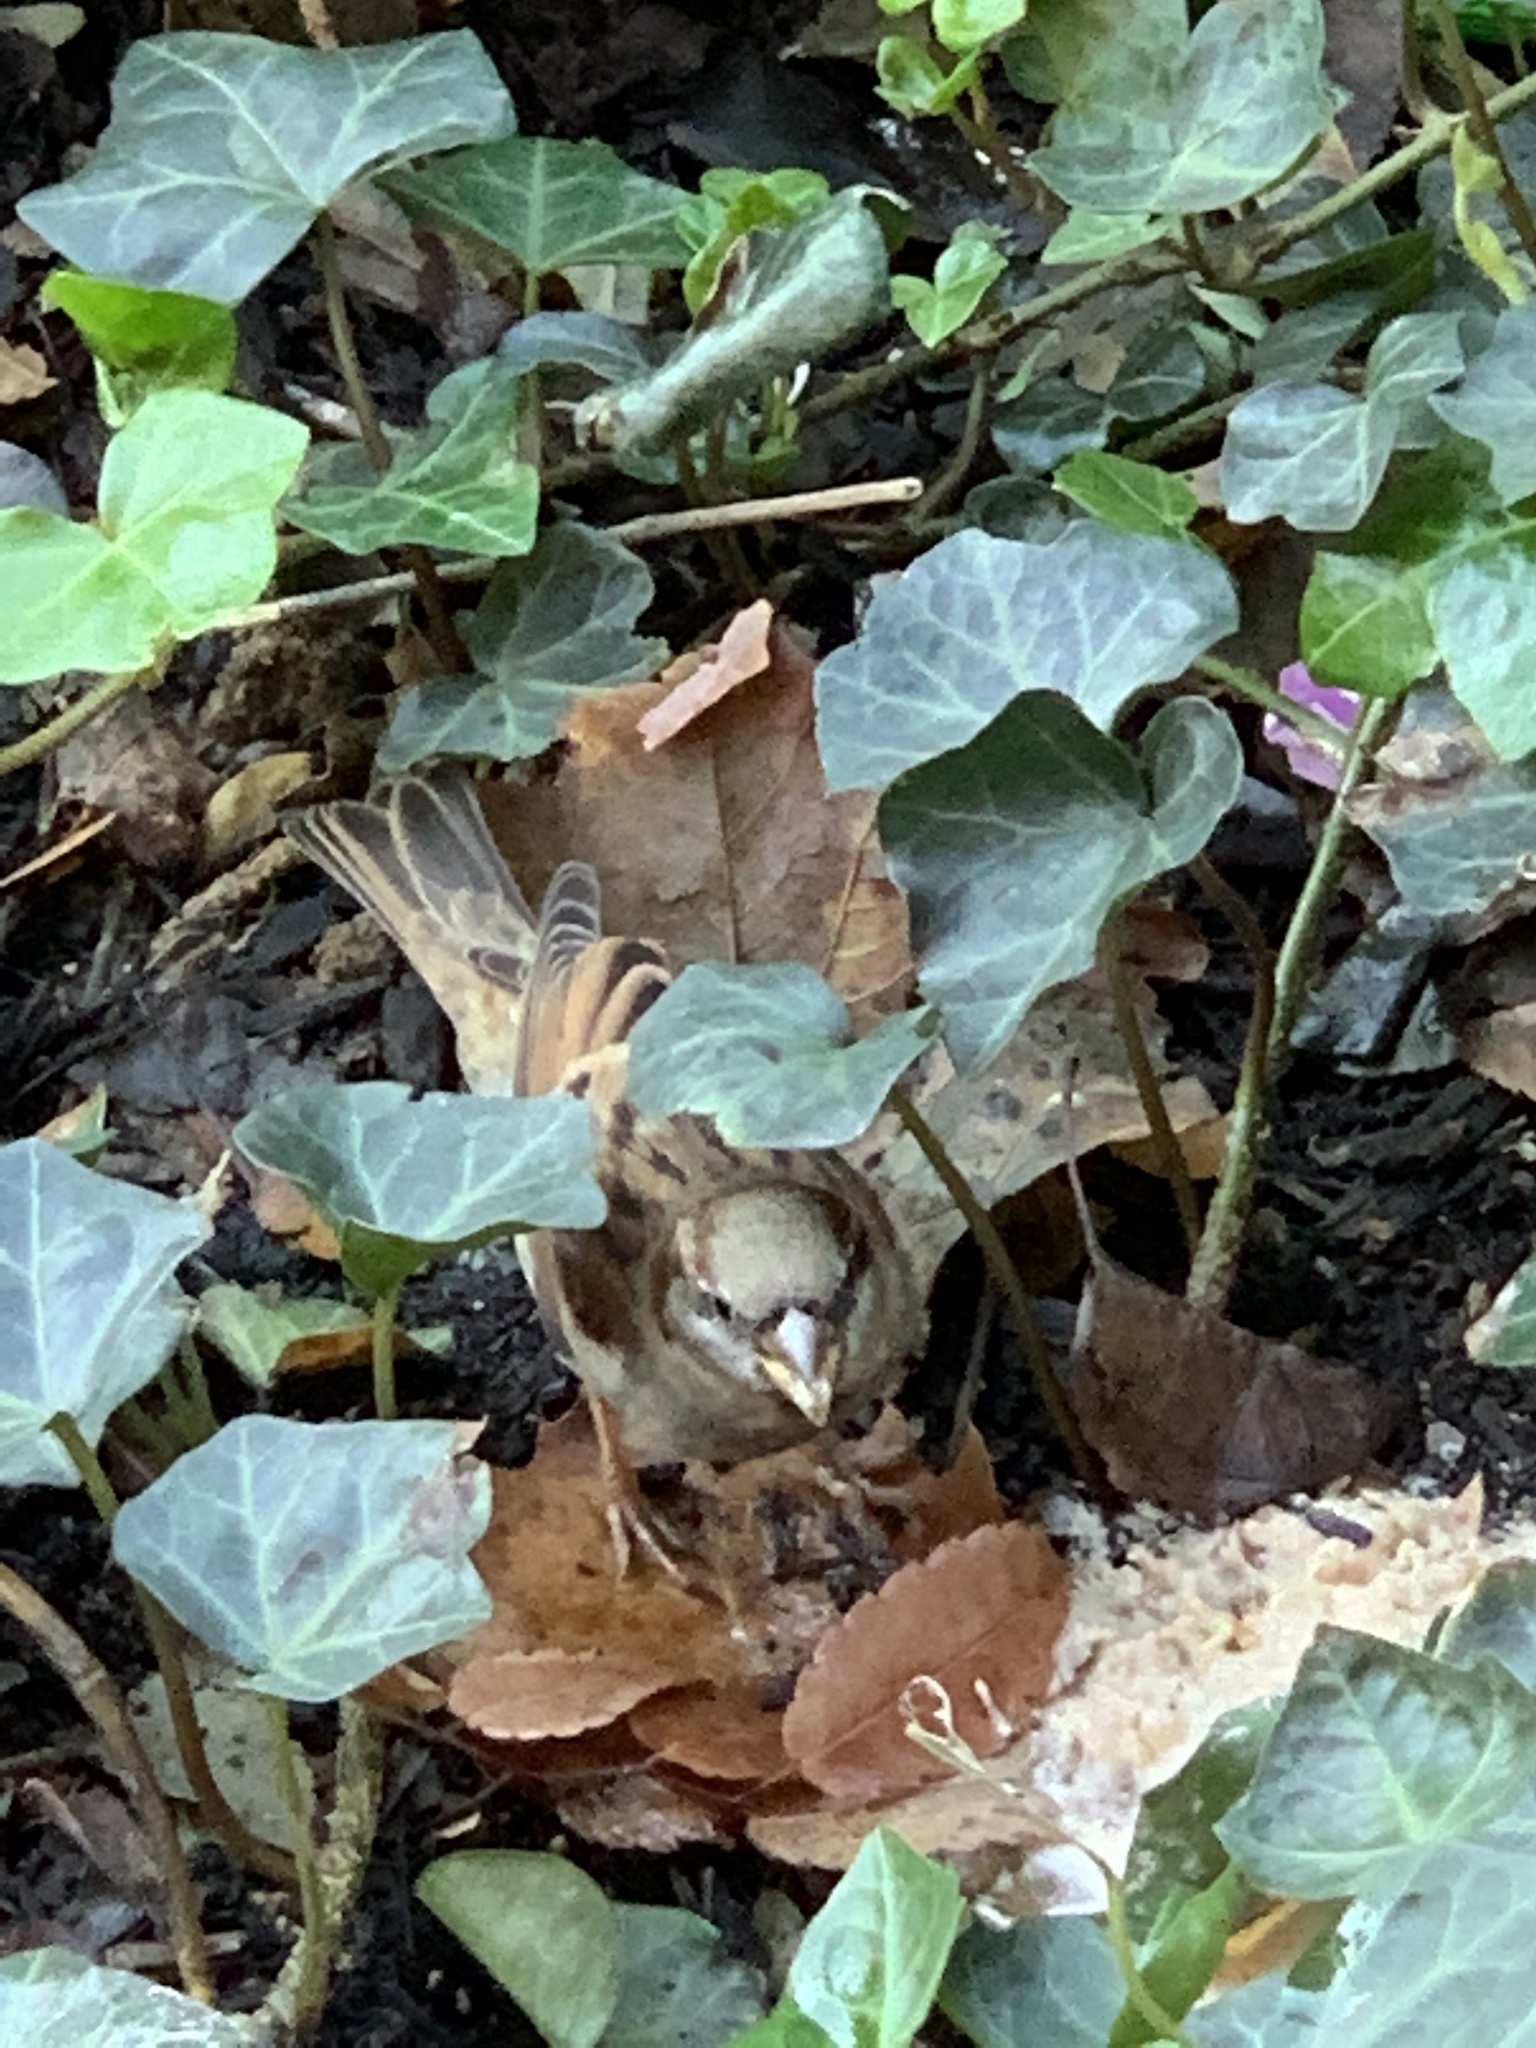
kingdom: Animalia
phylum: Chordata
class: Aves
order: Passeriformes
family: Passeridae
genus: Passer
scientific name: Passer domesticus
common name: House sparrow
